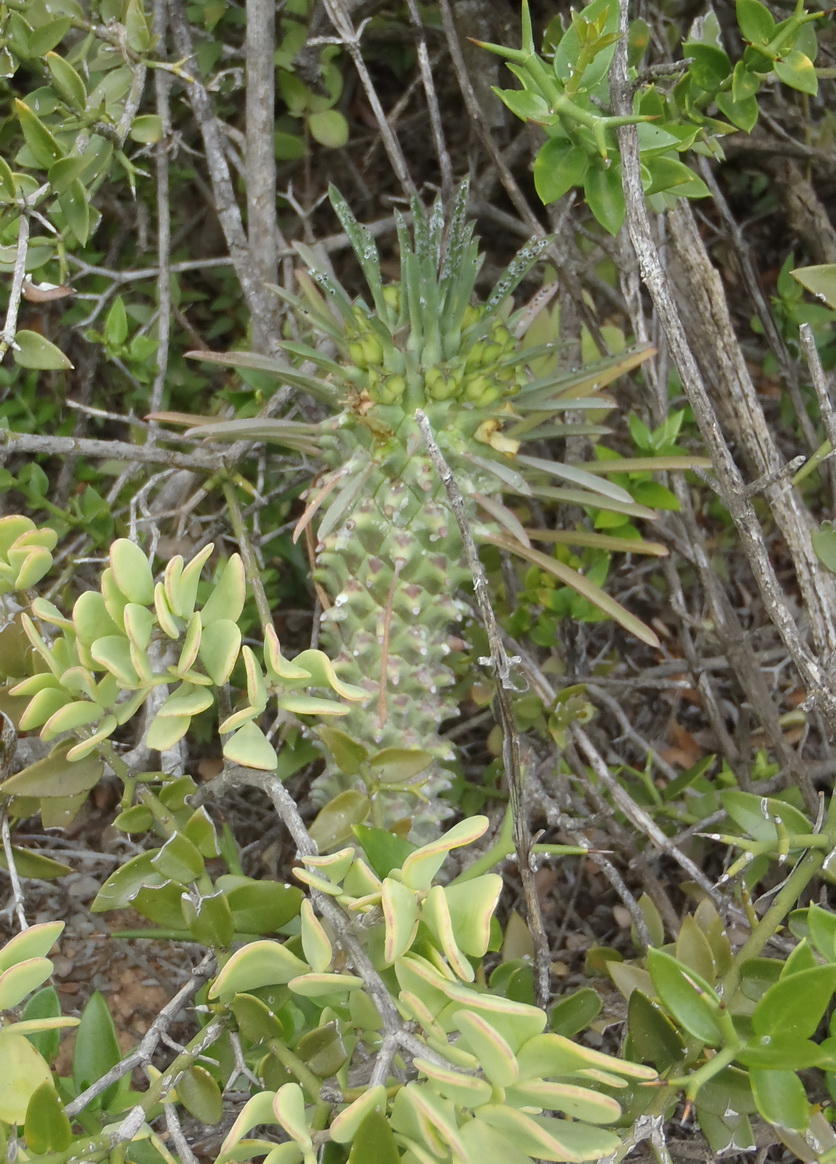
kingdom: Plantae
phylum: Tracheophyta
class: Magnoliopsida
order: Malpighiales
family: Euphorbiaceae
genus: Euphorbia
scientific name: Euphorbia clandestina
